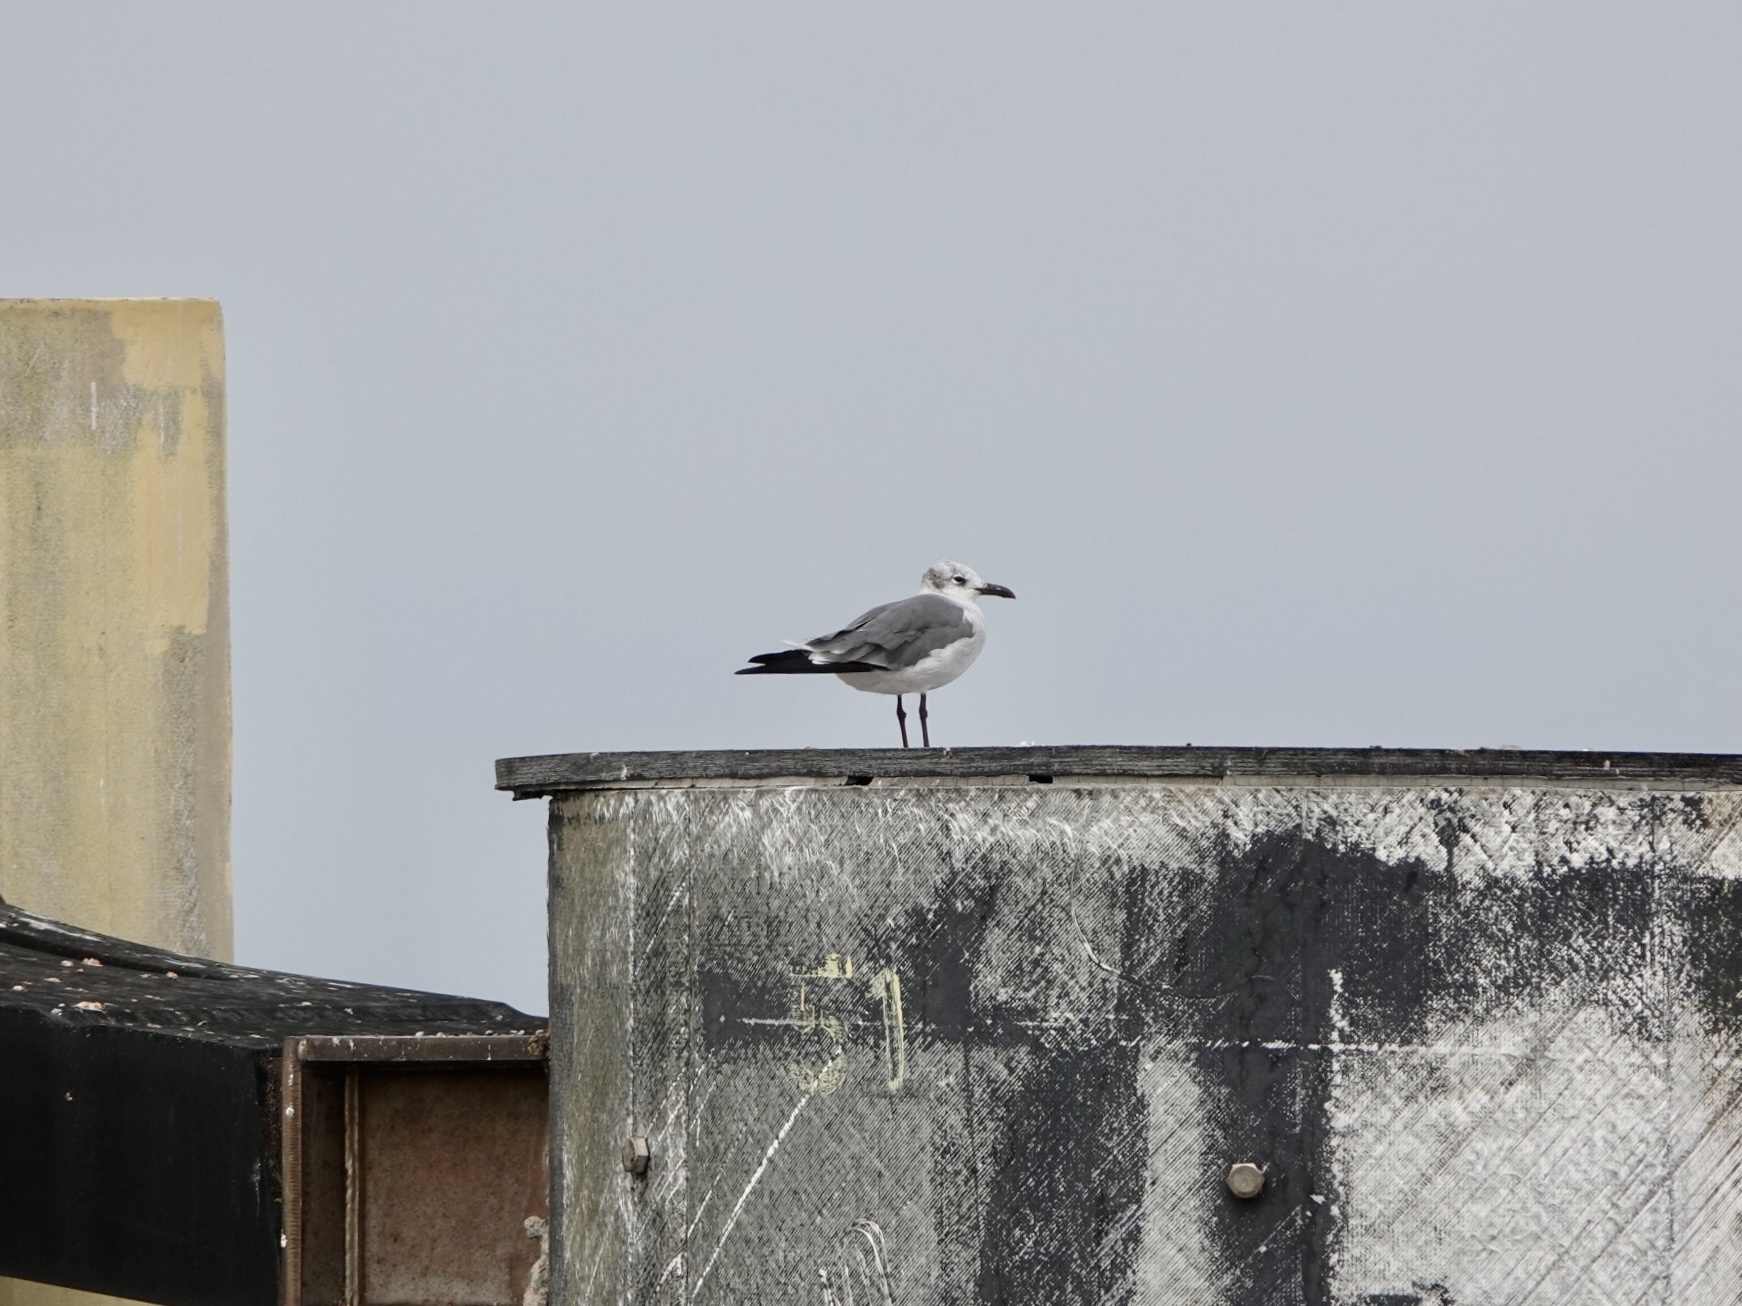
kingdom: Animalia
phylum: Chordata
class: Aves
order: Charadriiformes
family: Laridae
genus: Leucophaeus
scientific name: Leucophaeus atricilla
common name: Laughing gull
